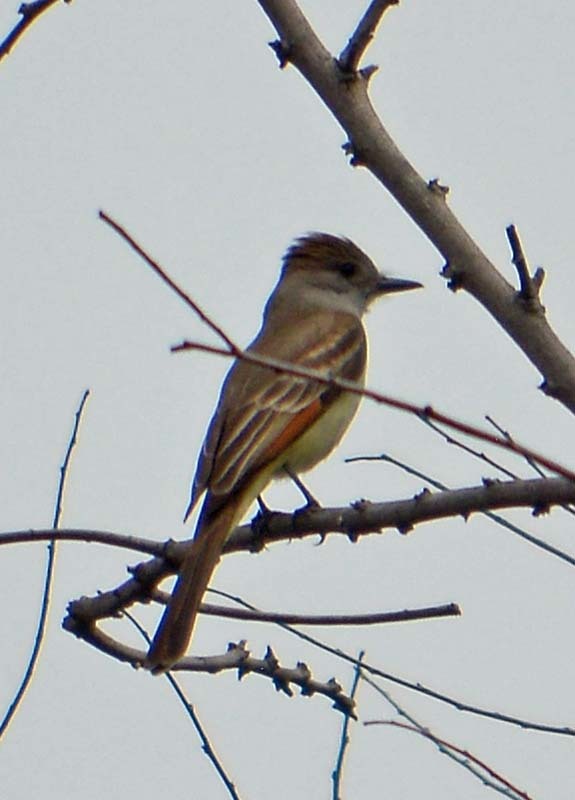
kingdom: Animalia
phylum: Chordata
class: Aves
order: Passeriformes
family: Tyrannidae
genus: Myiarchus
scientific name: Myiarchus cinerascens
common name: Ash-throated flycatcher
